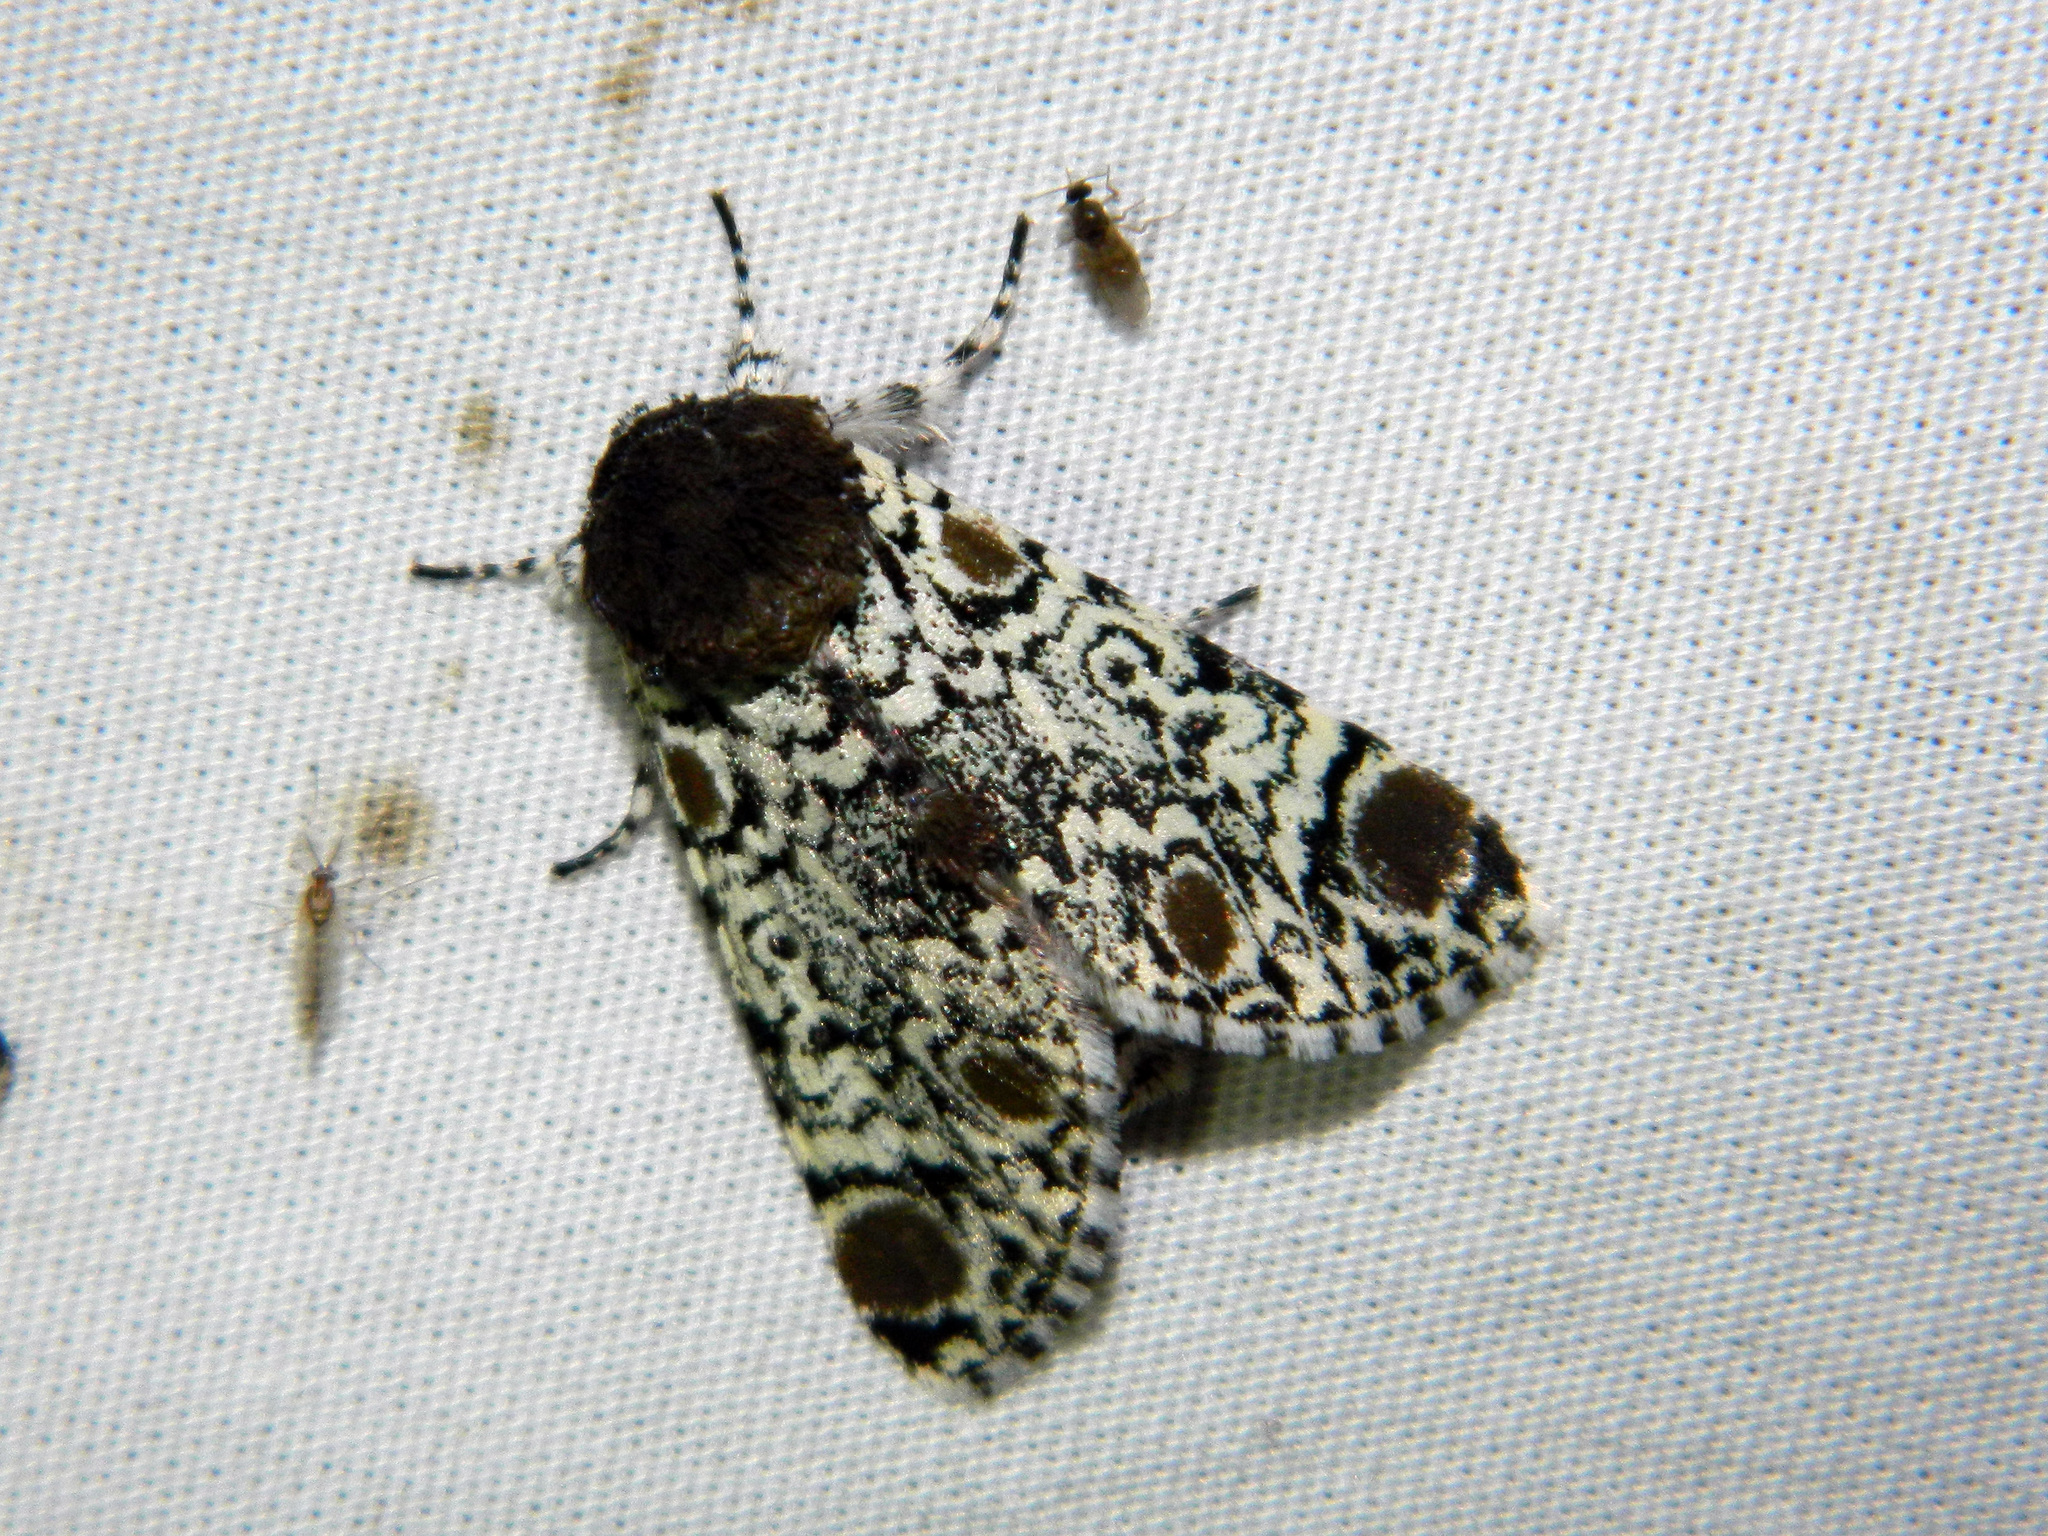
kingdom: Animalia
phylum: Arthropoda
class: Insecta
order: Lepidoptera
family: Noctuidae
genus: Harrisimemna
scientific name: Harrisimemna trisignata
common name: Harris threespot
